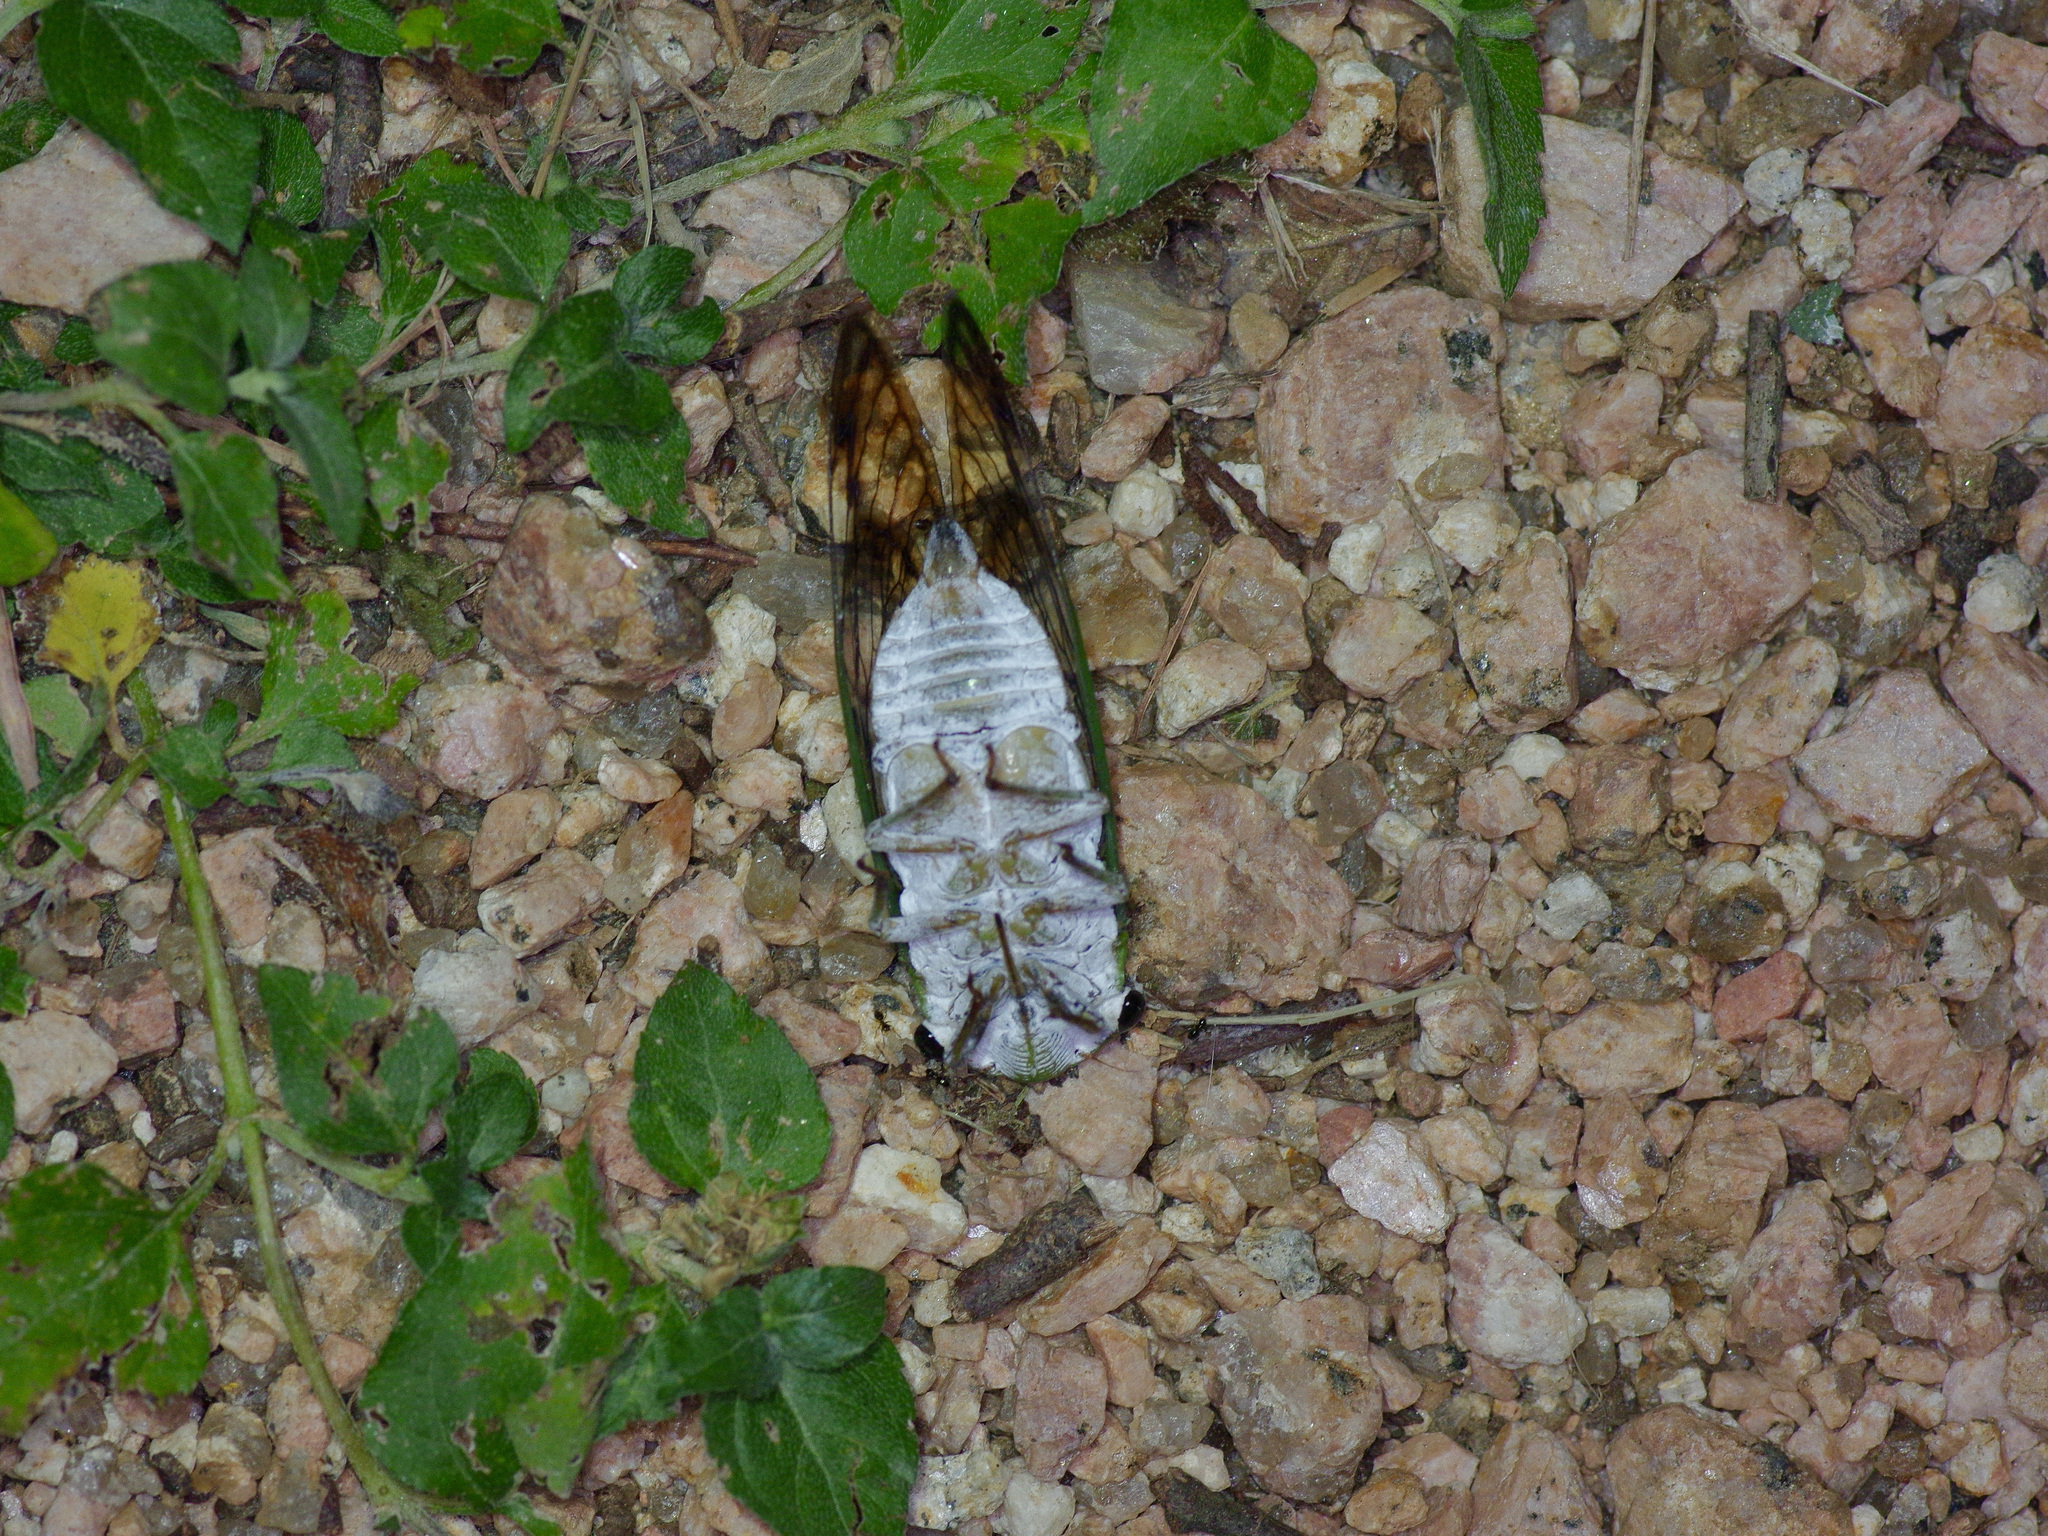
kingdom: Animalia
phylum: Arthropoda
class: Insecta
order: Hemiptera
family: Cicadidae
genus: Neotibicen
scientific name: Neotibicen superbus
